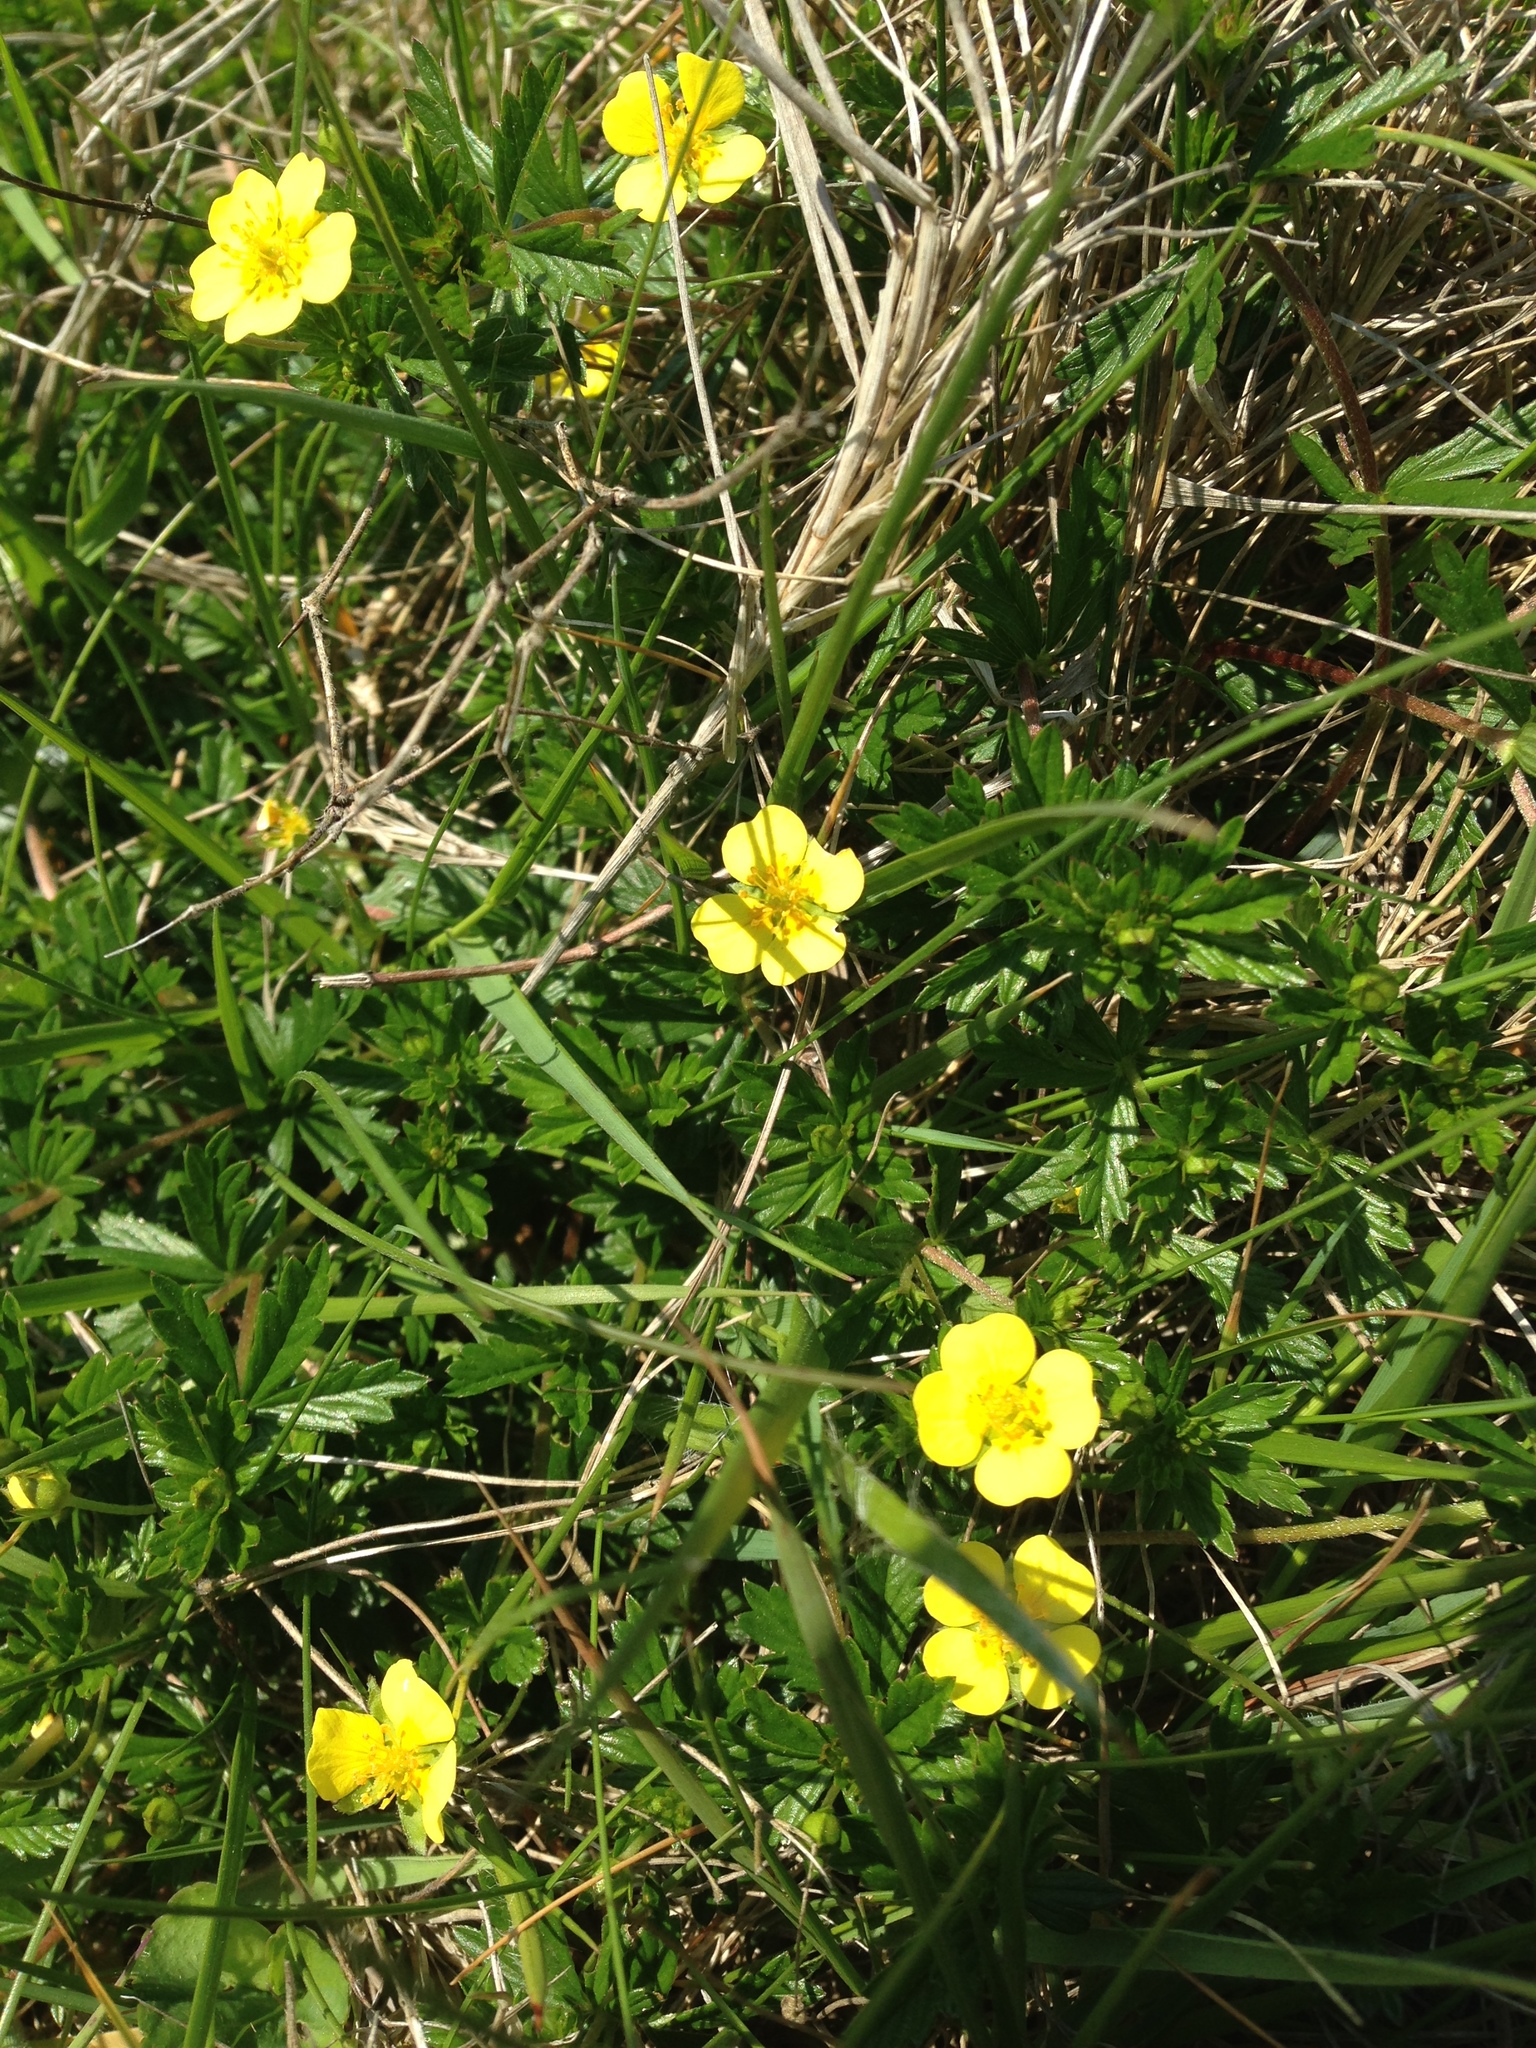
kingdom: Plantae
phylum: Tracheophyta
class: Magnoliopsida
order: Rosales
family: Rosaceae
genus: Potentilla
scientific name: Potentilla erecta
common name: Tormentil
